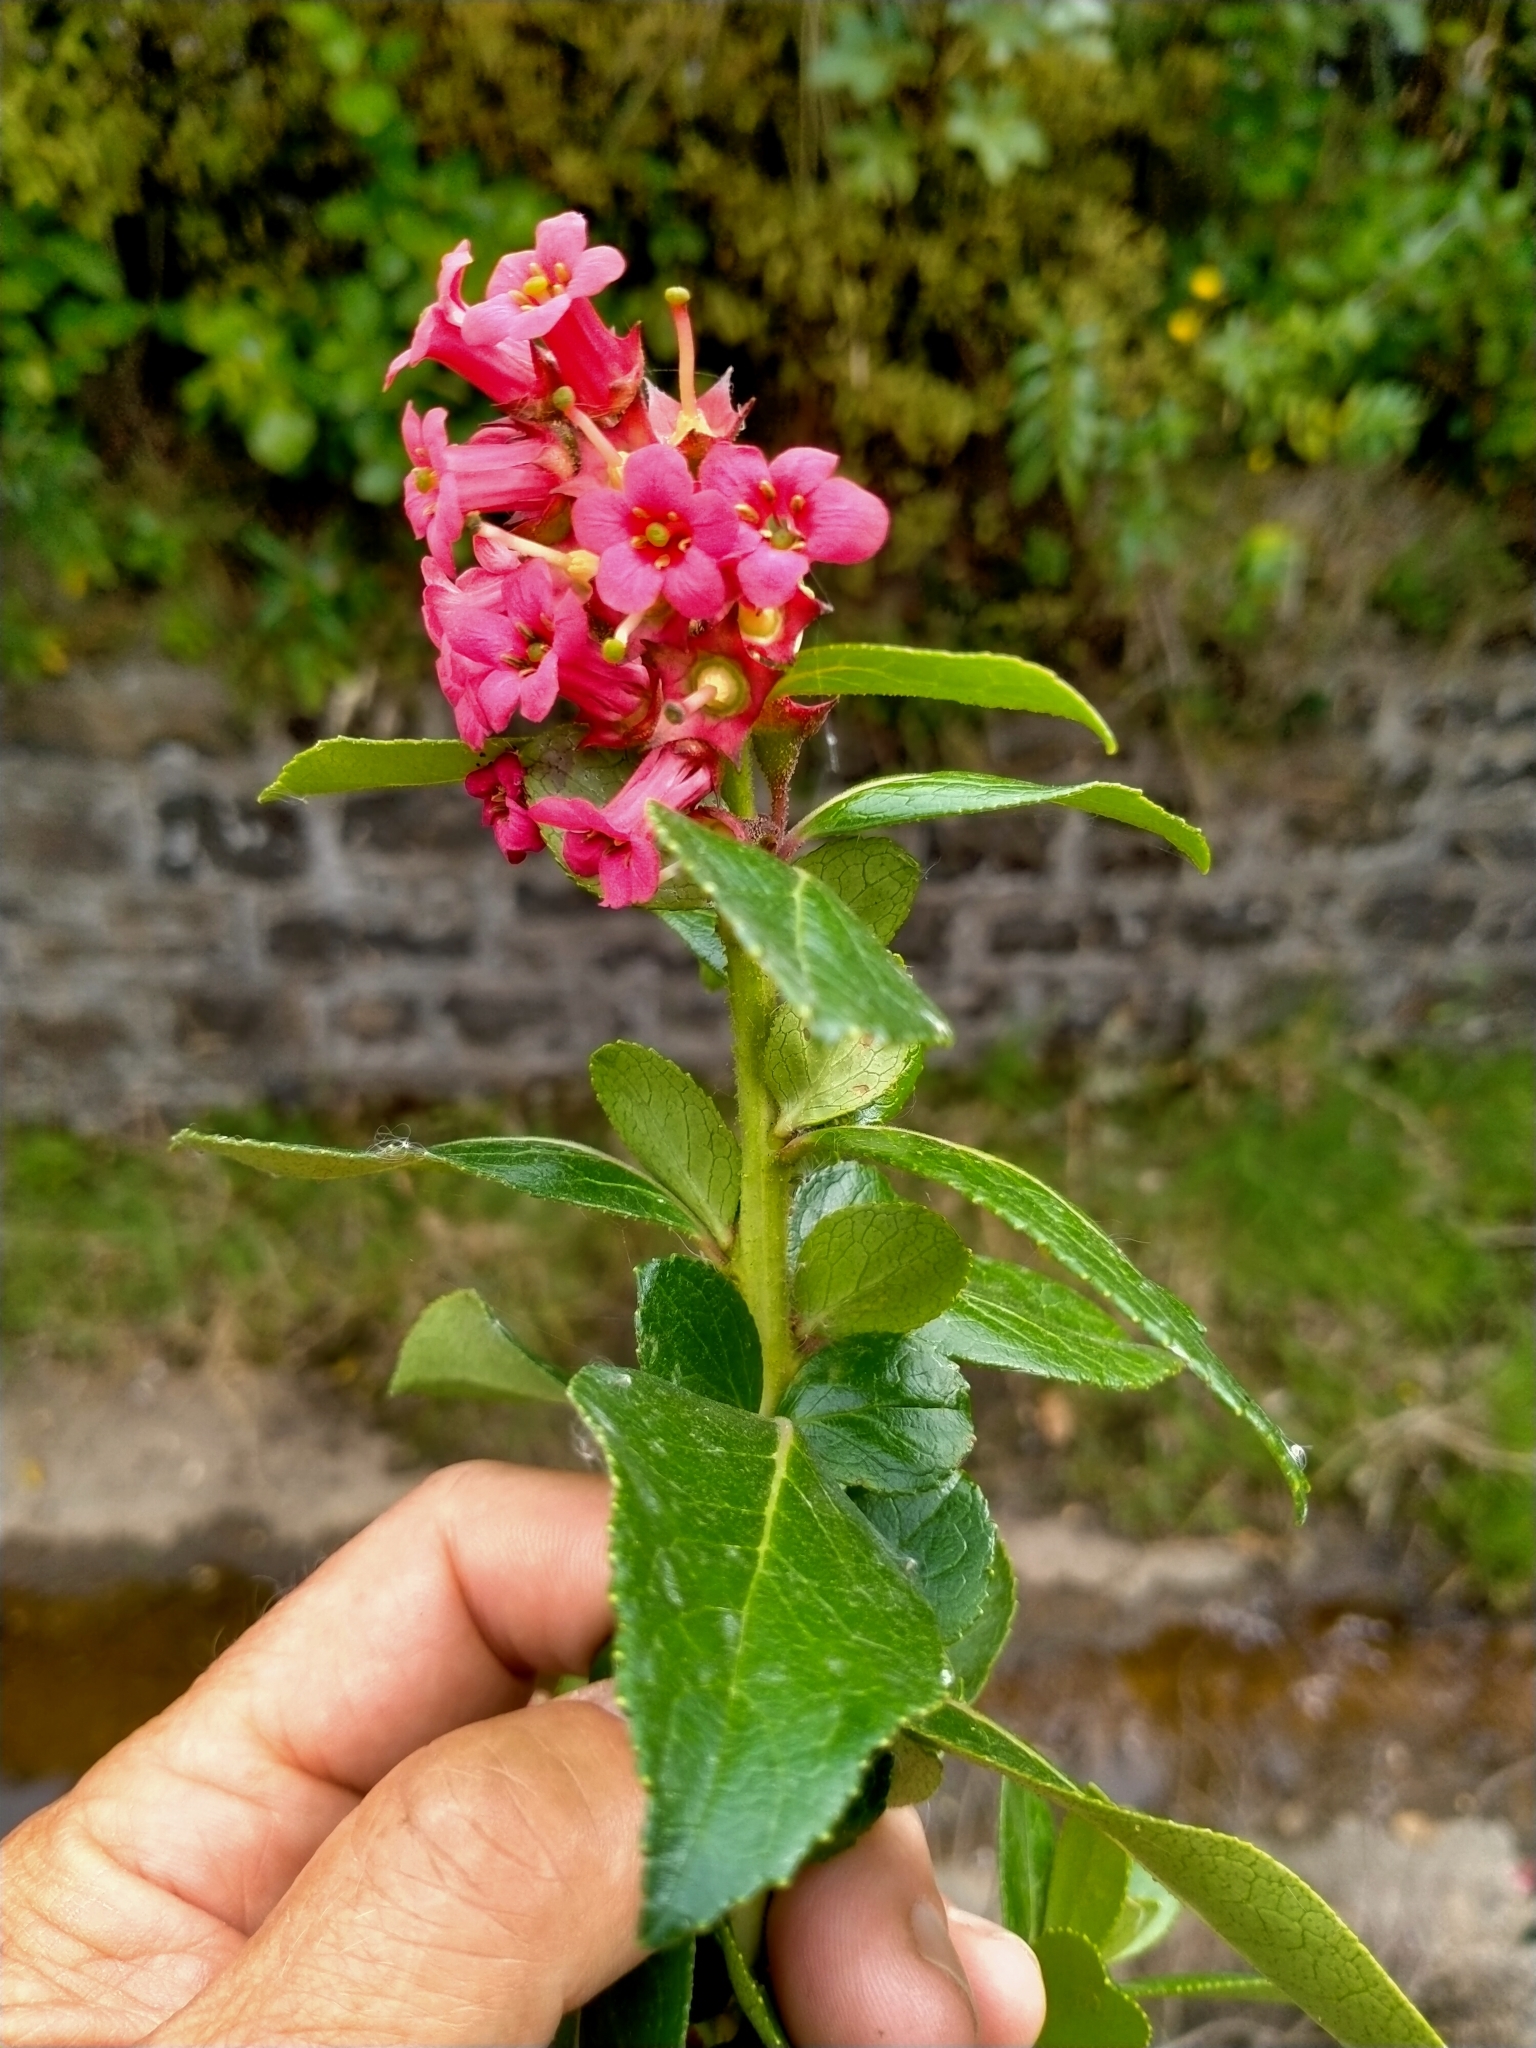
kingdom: Plantae
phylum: Tracheophyta
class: Magnoliopsida
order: Escalloniales
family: Escalloniaceae
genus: Escallonia
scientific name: Escallonia rubra
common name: Redclaws
